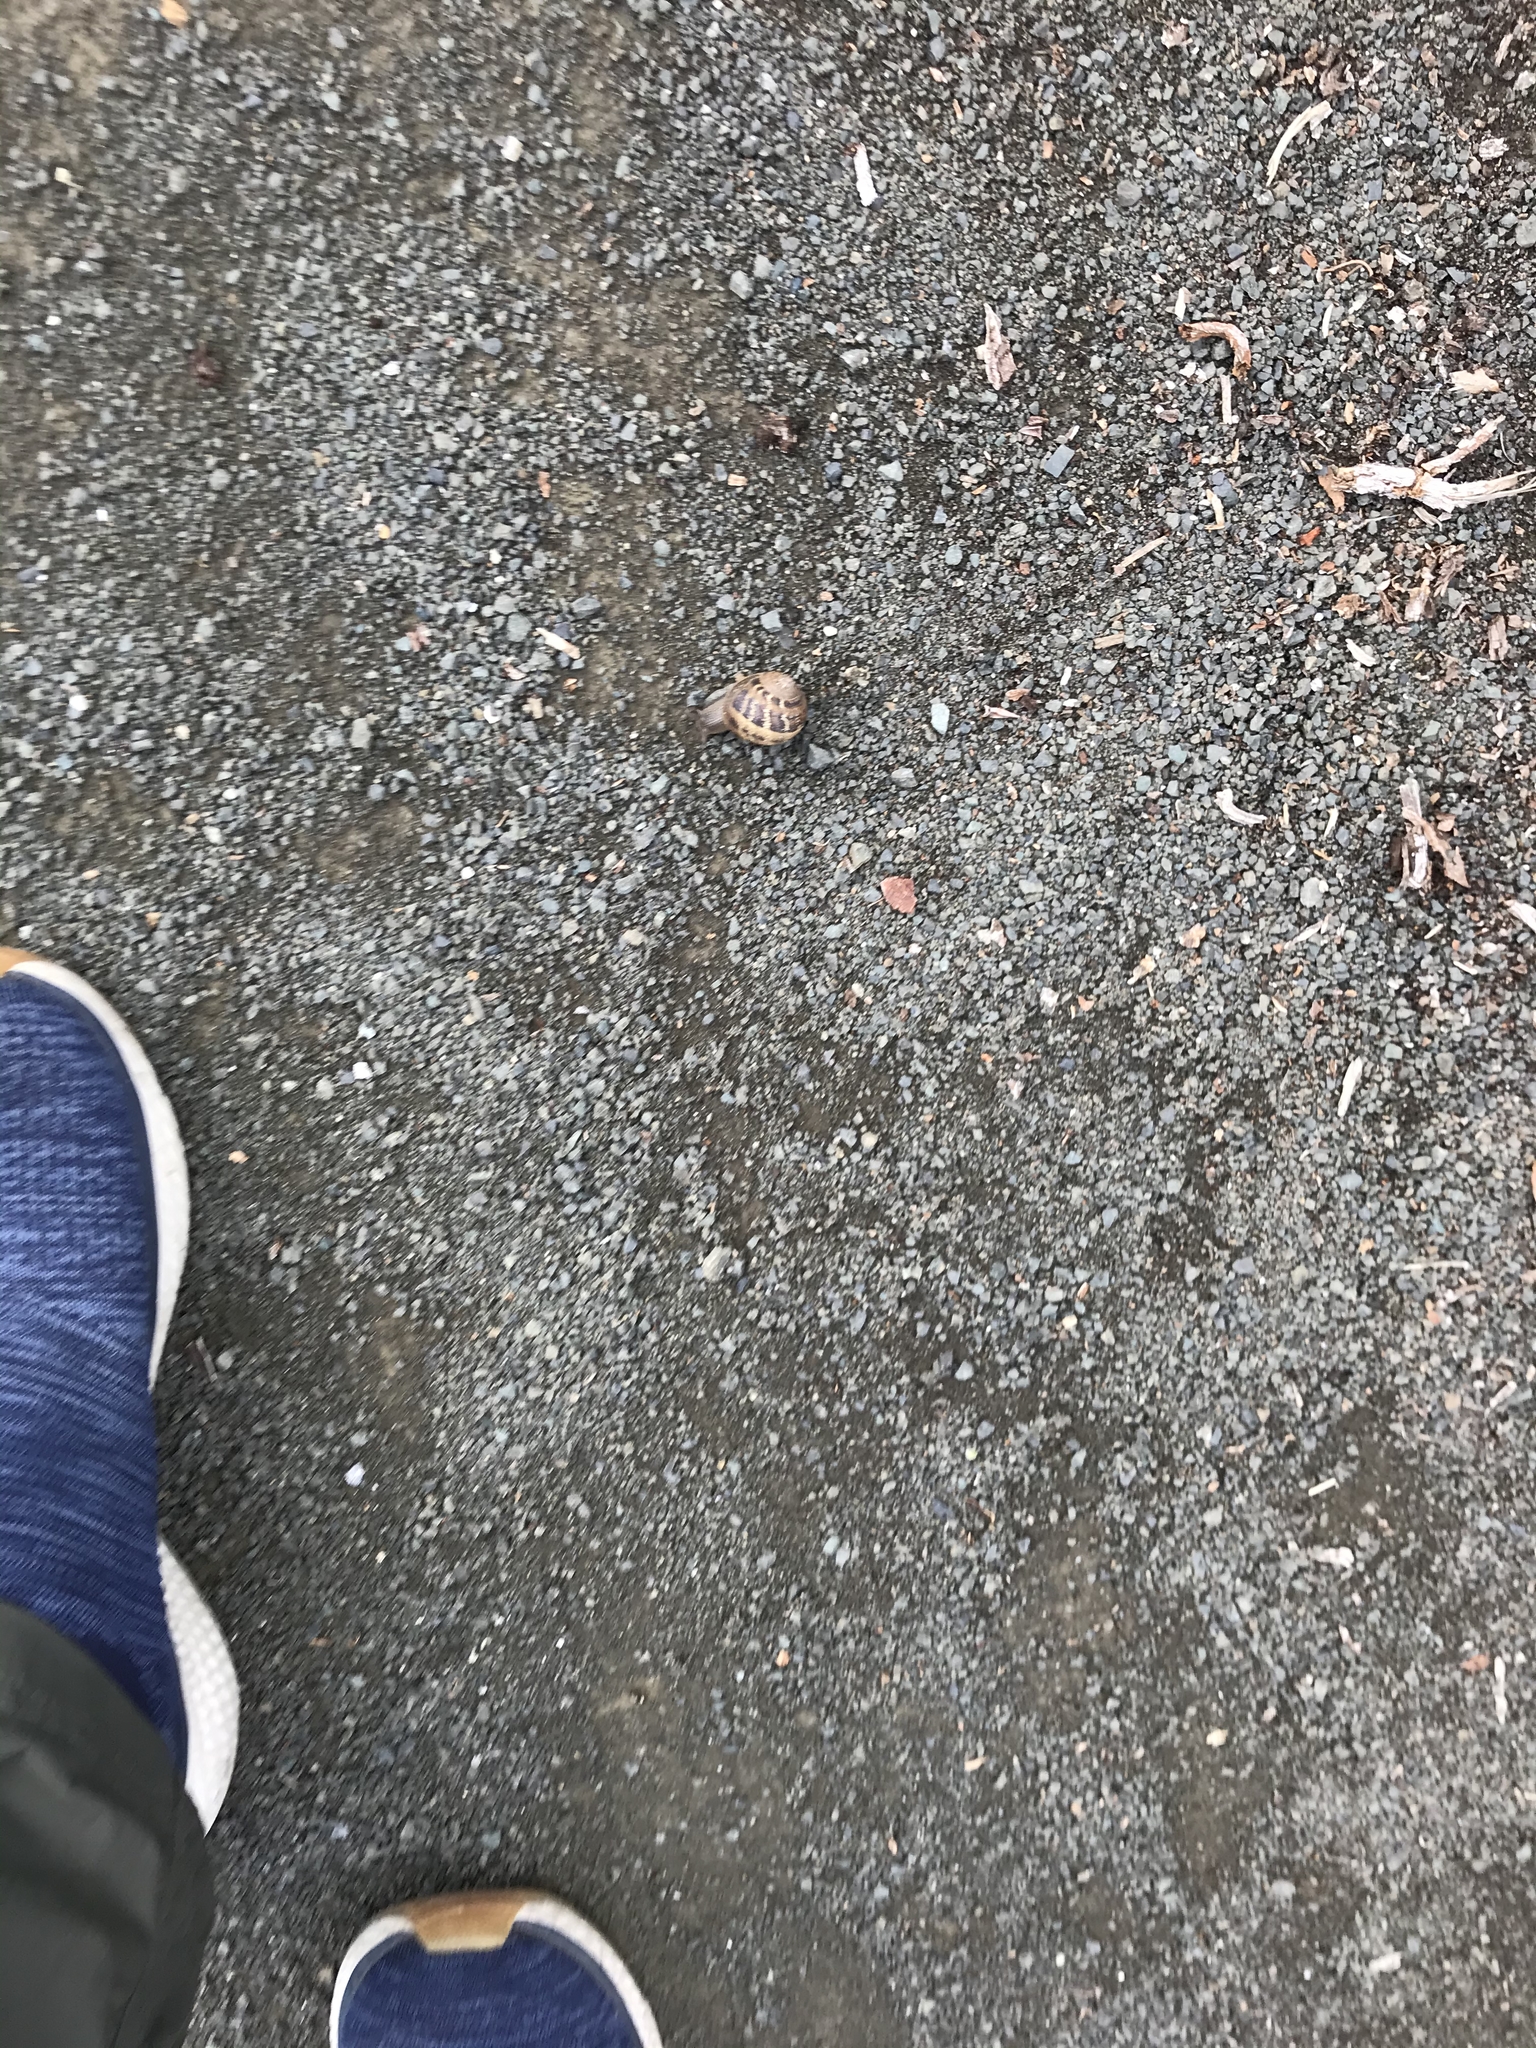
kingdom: Animalia
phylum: Mollusca
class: Gastropoda
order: Stylommatophora
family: Helicidae
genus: Cornu
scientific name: Cornu aspersum
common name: Brown garden snail
